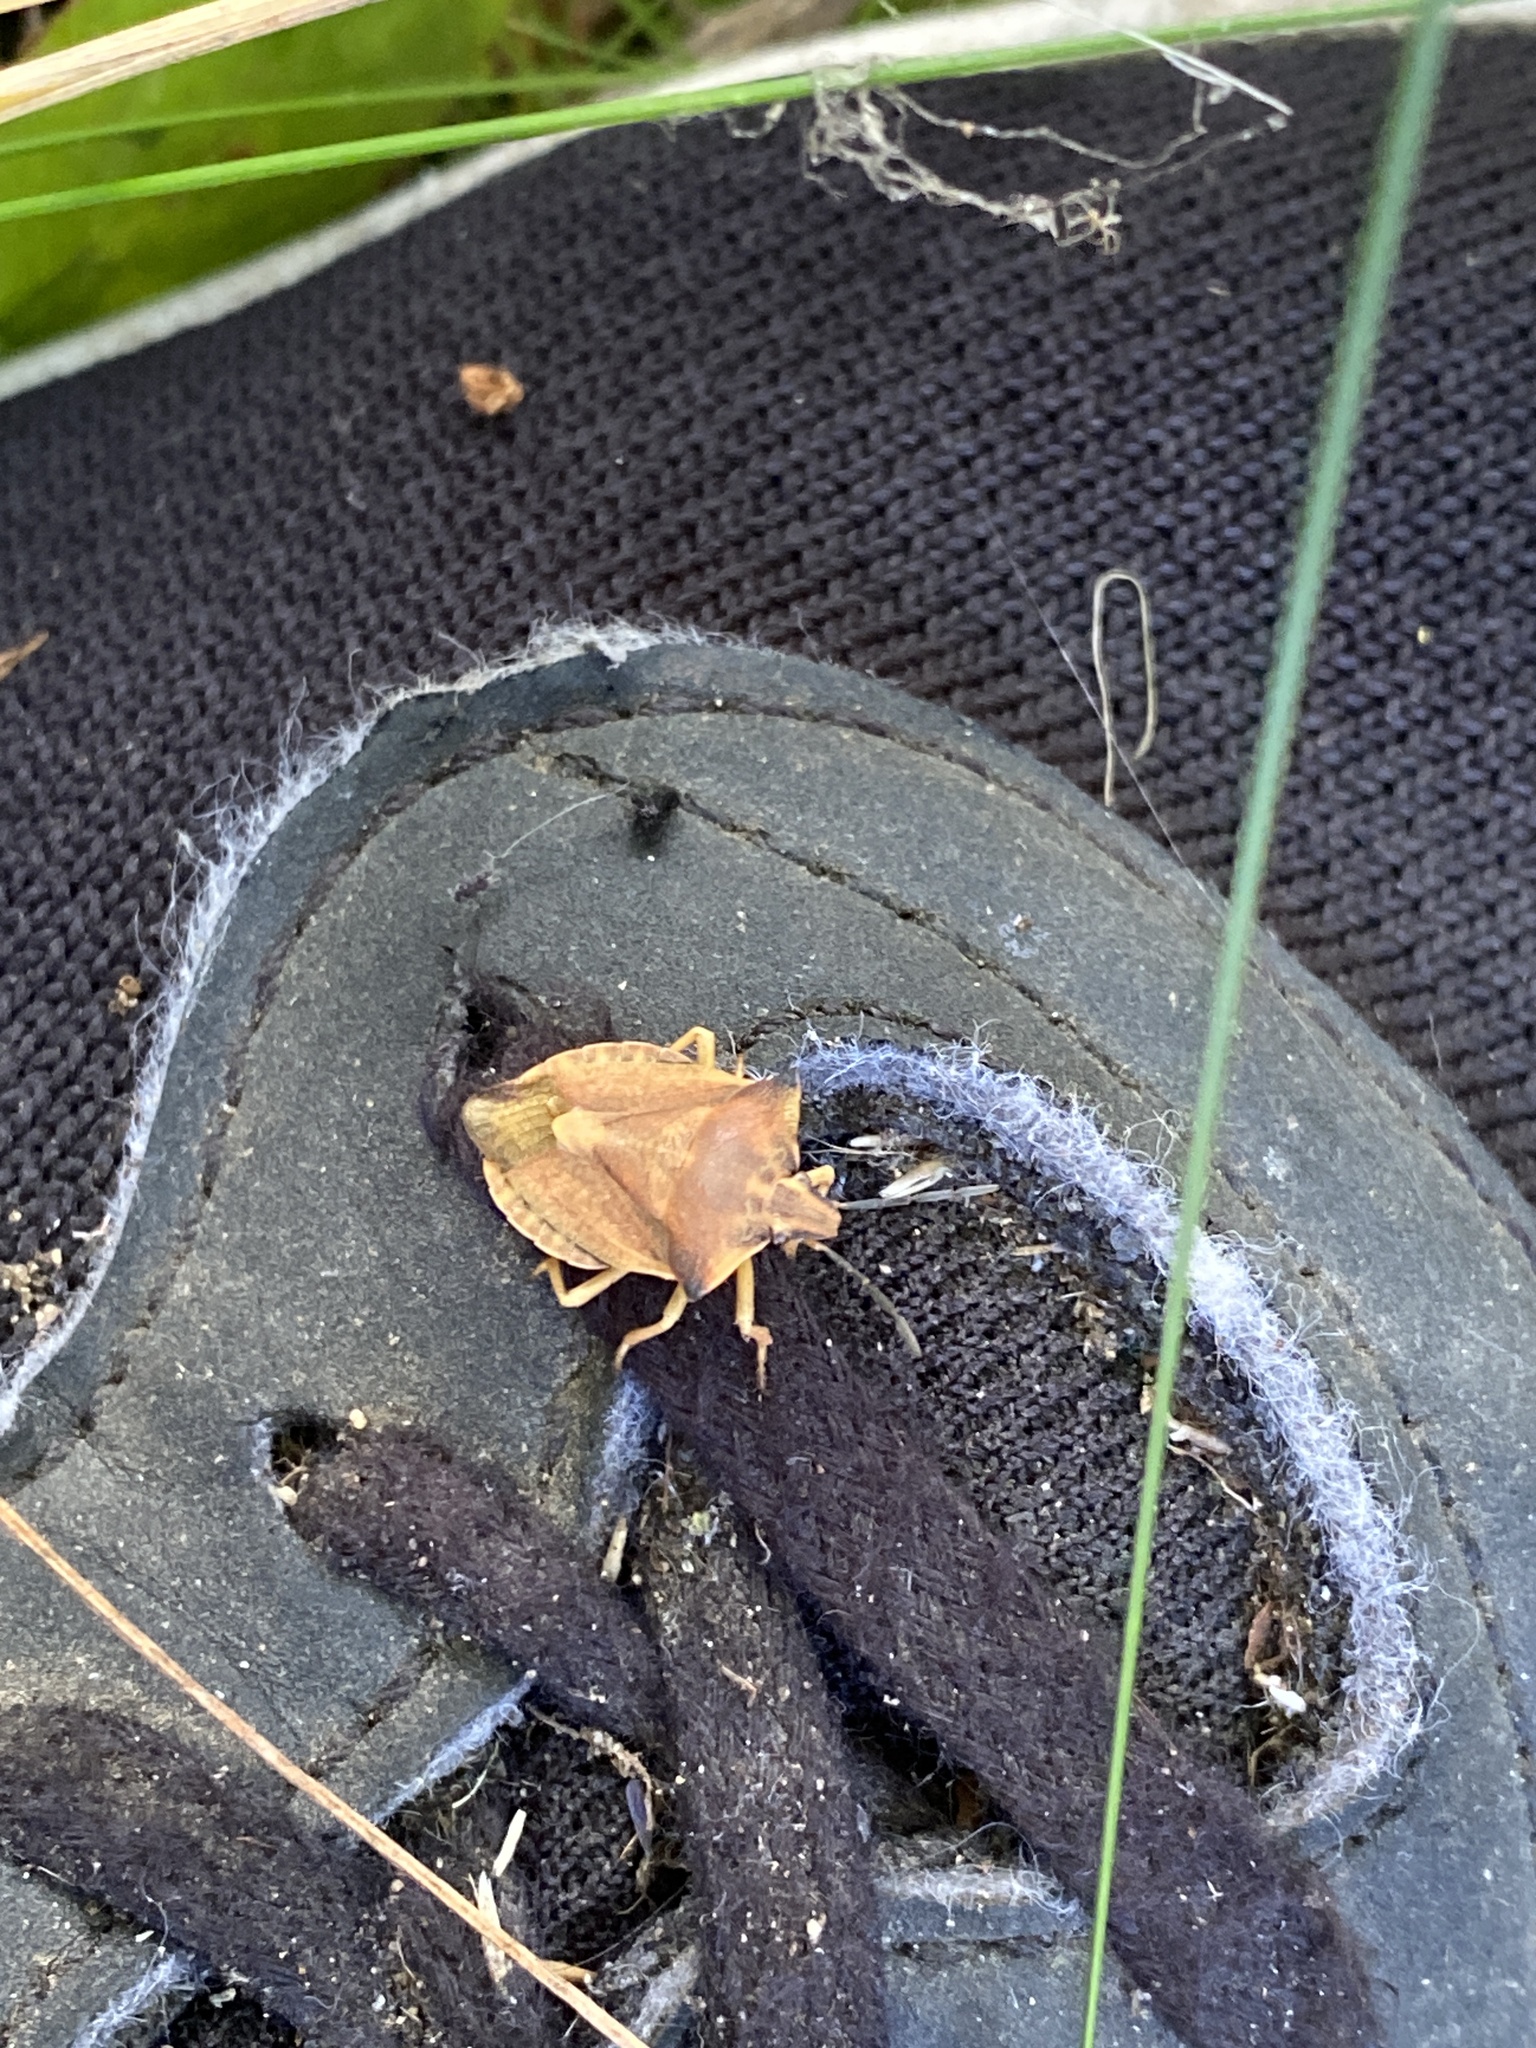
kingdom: Animalia
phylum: Arthropoda
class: Insecta
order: Hemiptera
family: Pentatomidae
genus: Carpocoris
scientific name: Carpocoris fuscispinus
